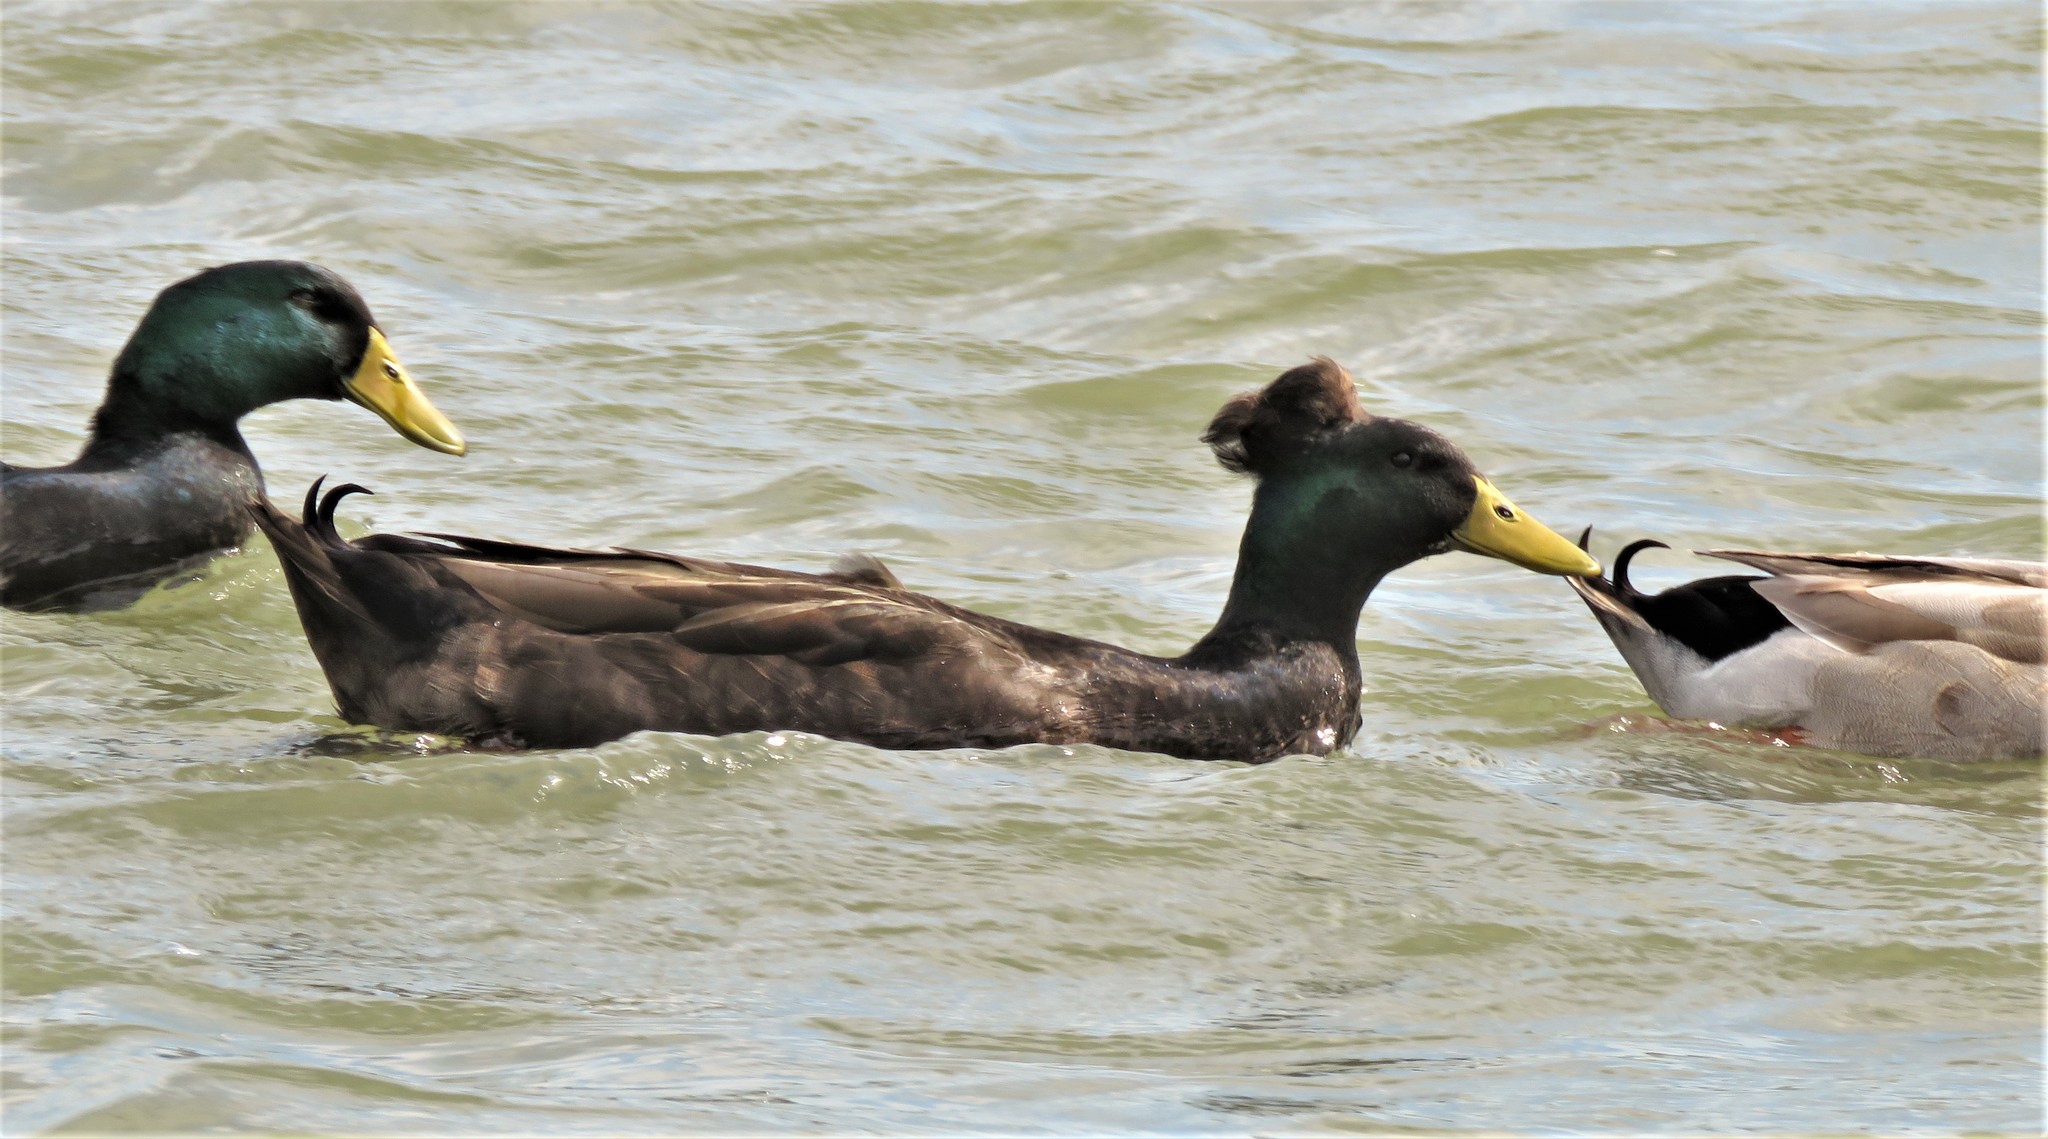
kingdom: Animalia
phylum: Chordata
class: Aves
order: Anseriformes
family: Anatidae
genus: Anas
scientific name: Anas platyrhynchos
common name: Mallard
